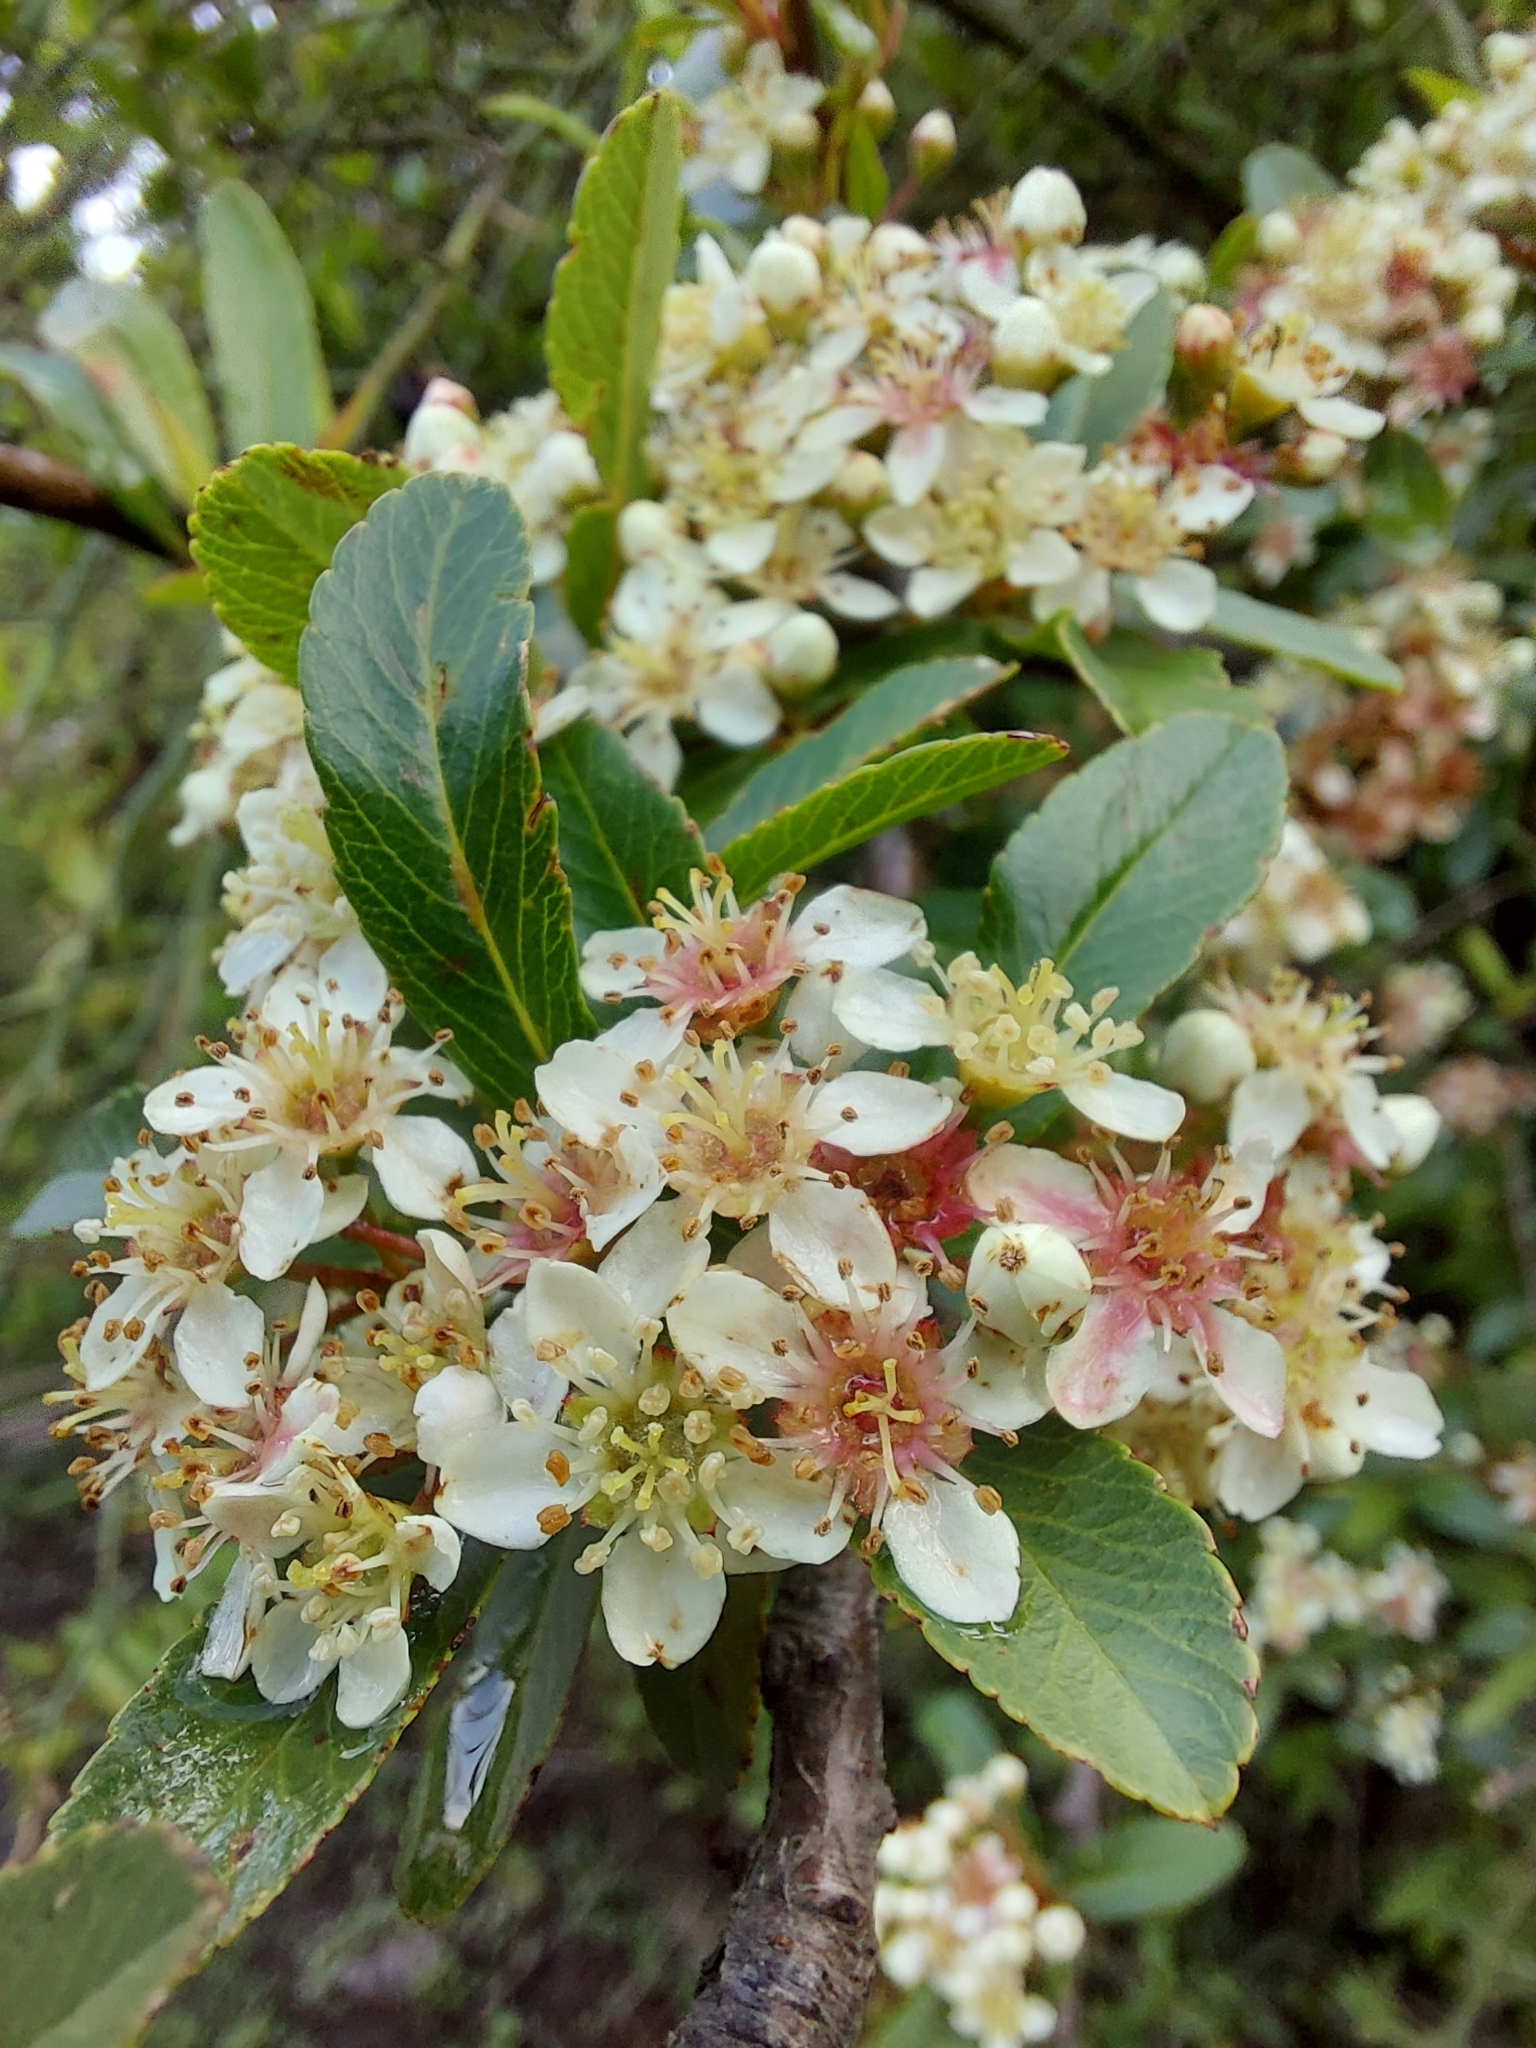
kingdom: Plantae
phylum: Tracheophyta
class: Magnoliopsida
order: Rosales
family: Rosaceae
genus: Pyracantha
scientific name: Pyracantha crenulata
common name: Nepalese firethorn
